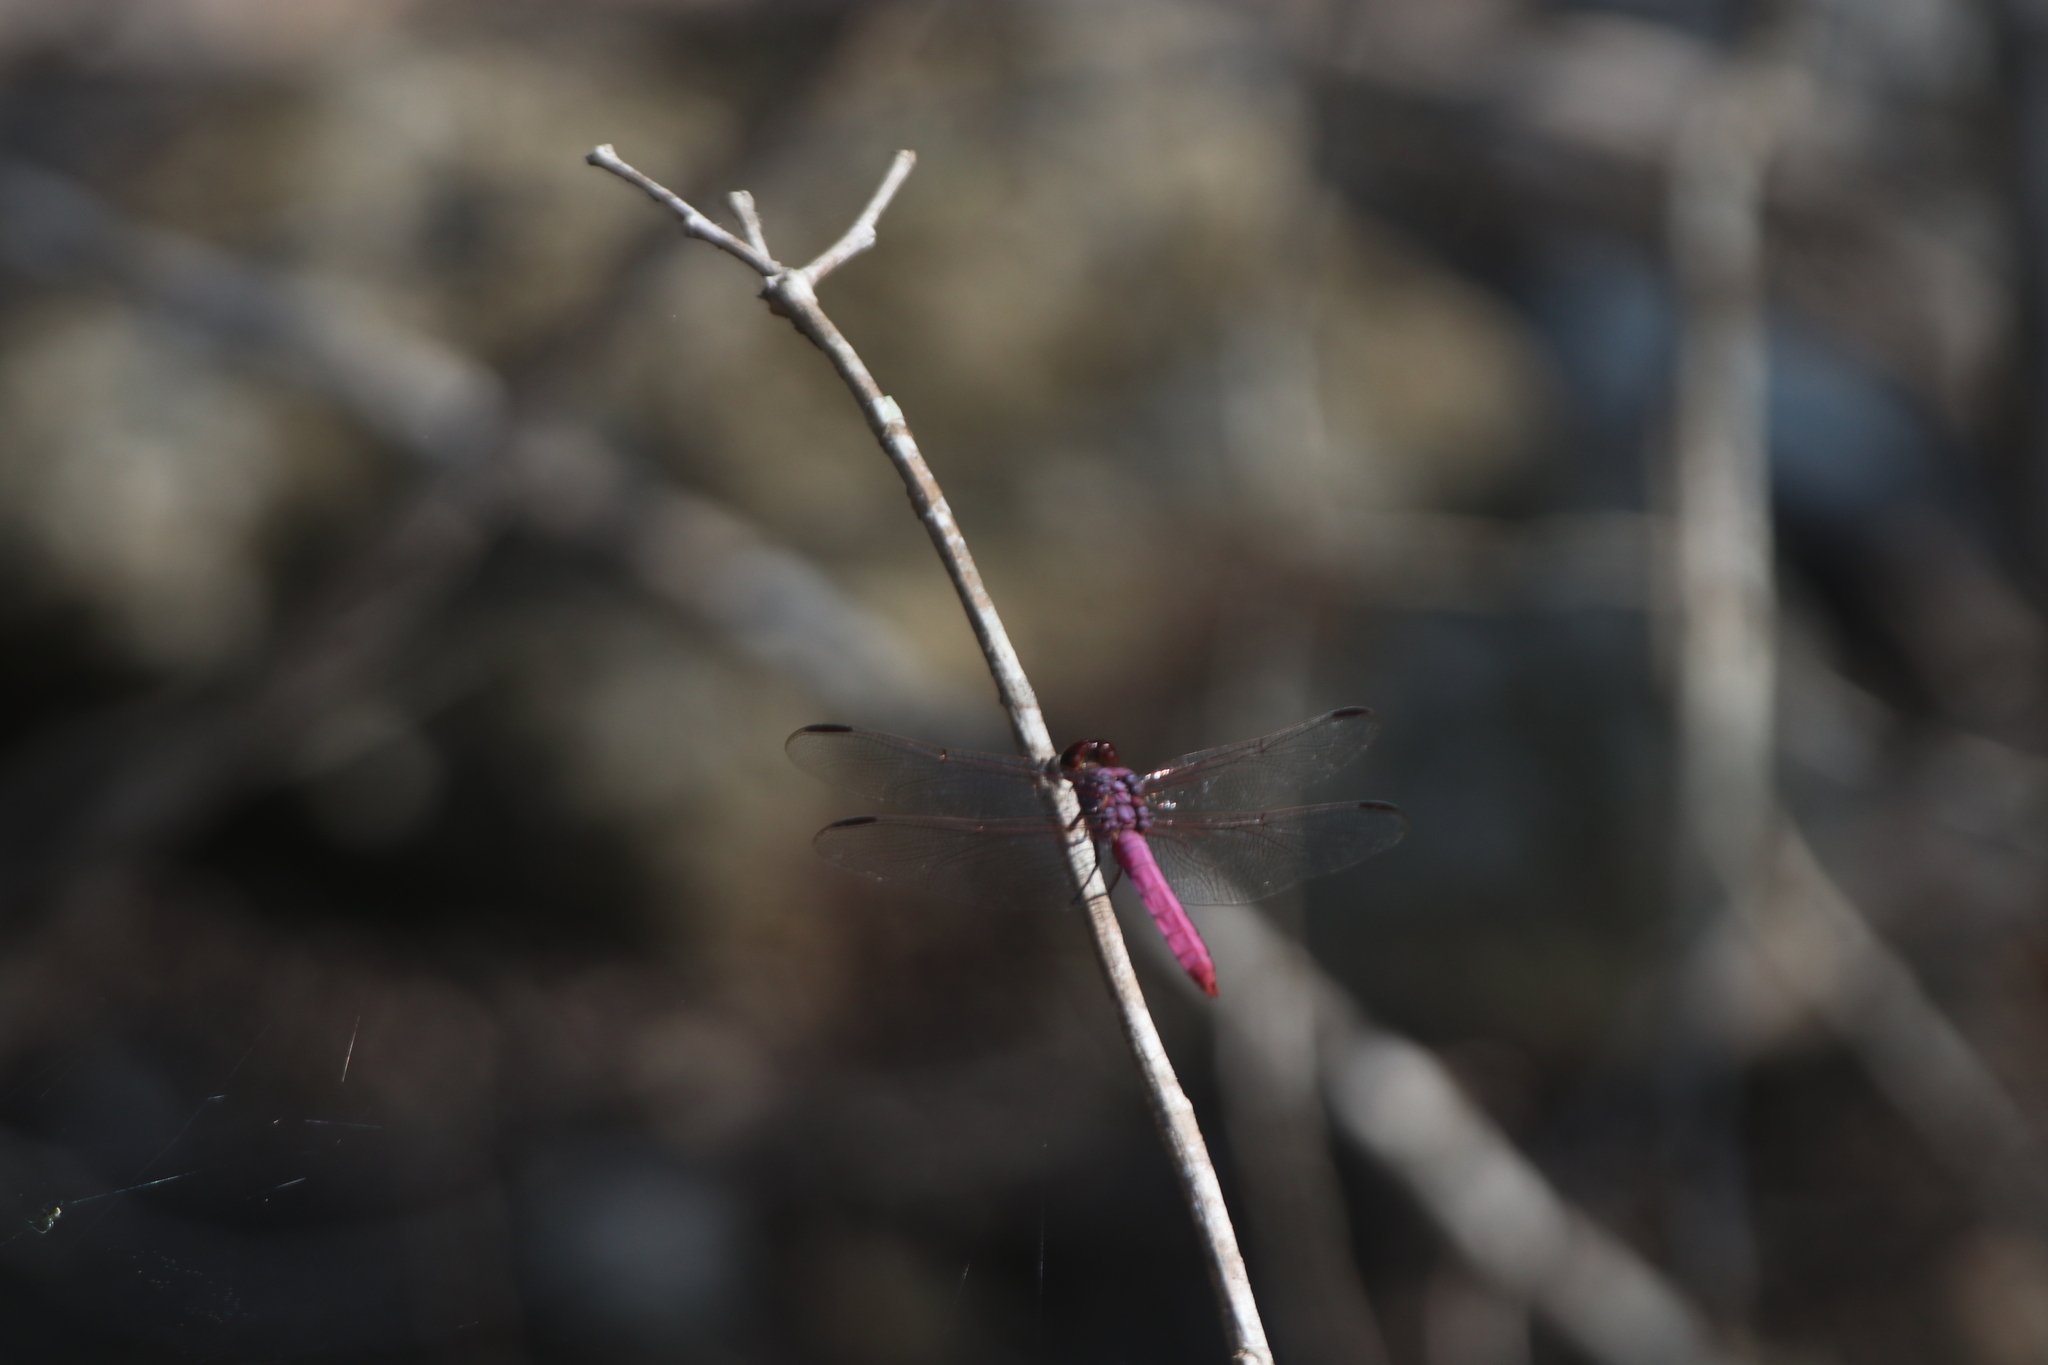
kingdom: Animalia
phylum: Arthropoda
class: Insecta
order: Odonata
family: Libellulidae
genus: Orthemis
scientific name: Orthemis ferruginea
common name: Roseate skimmer
